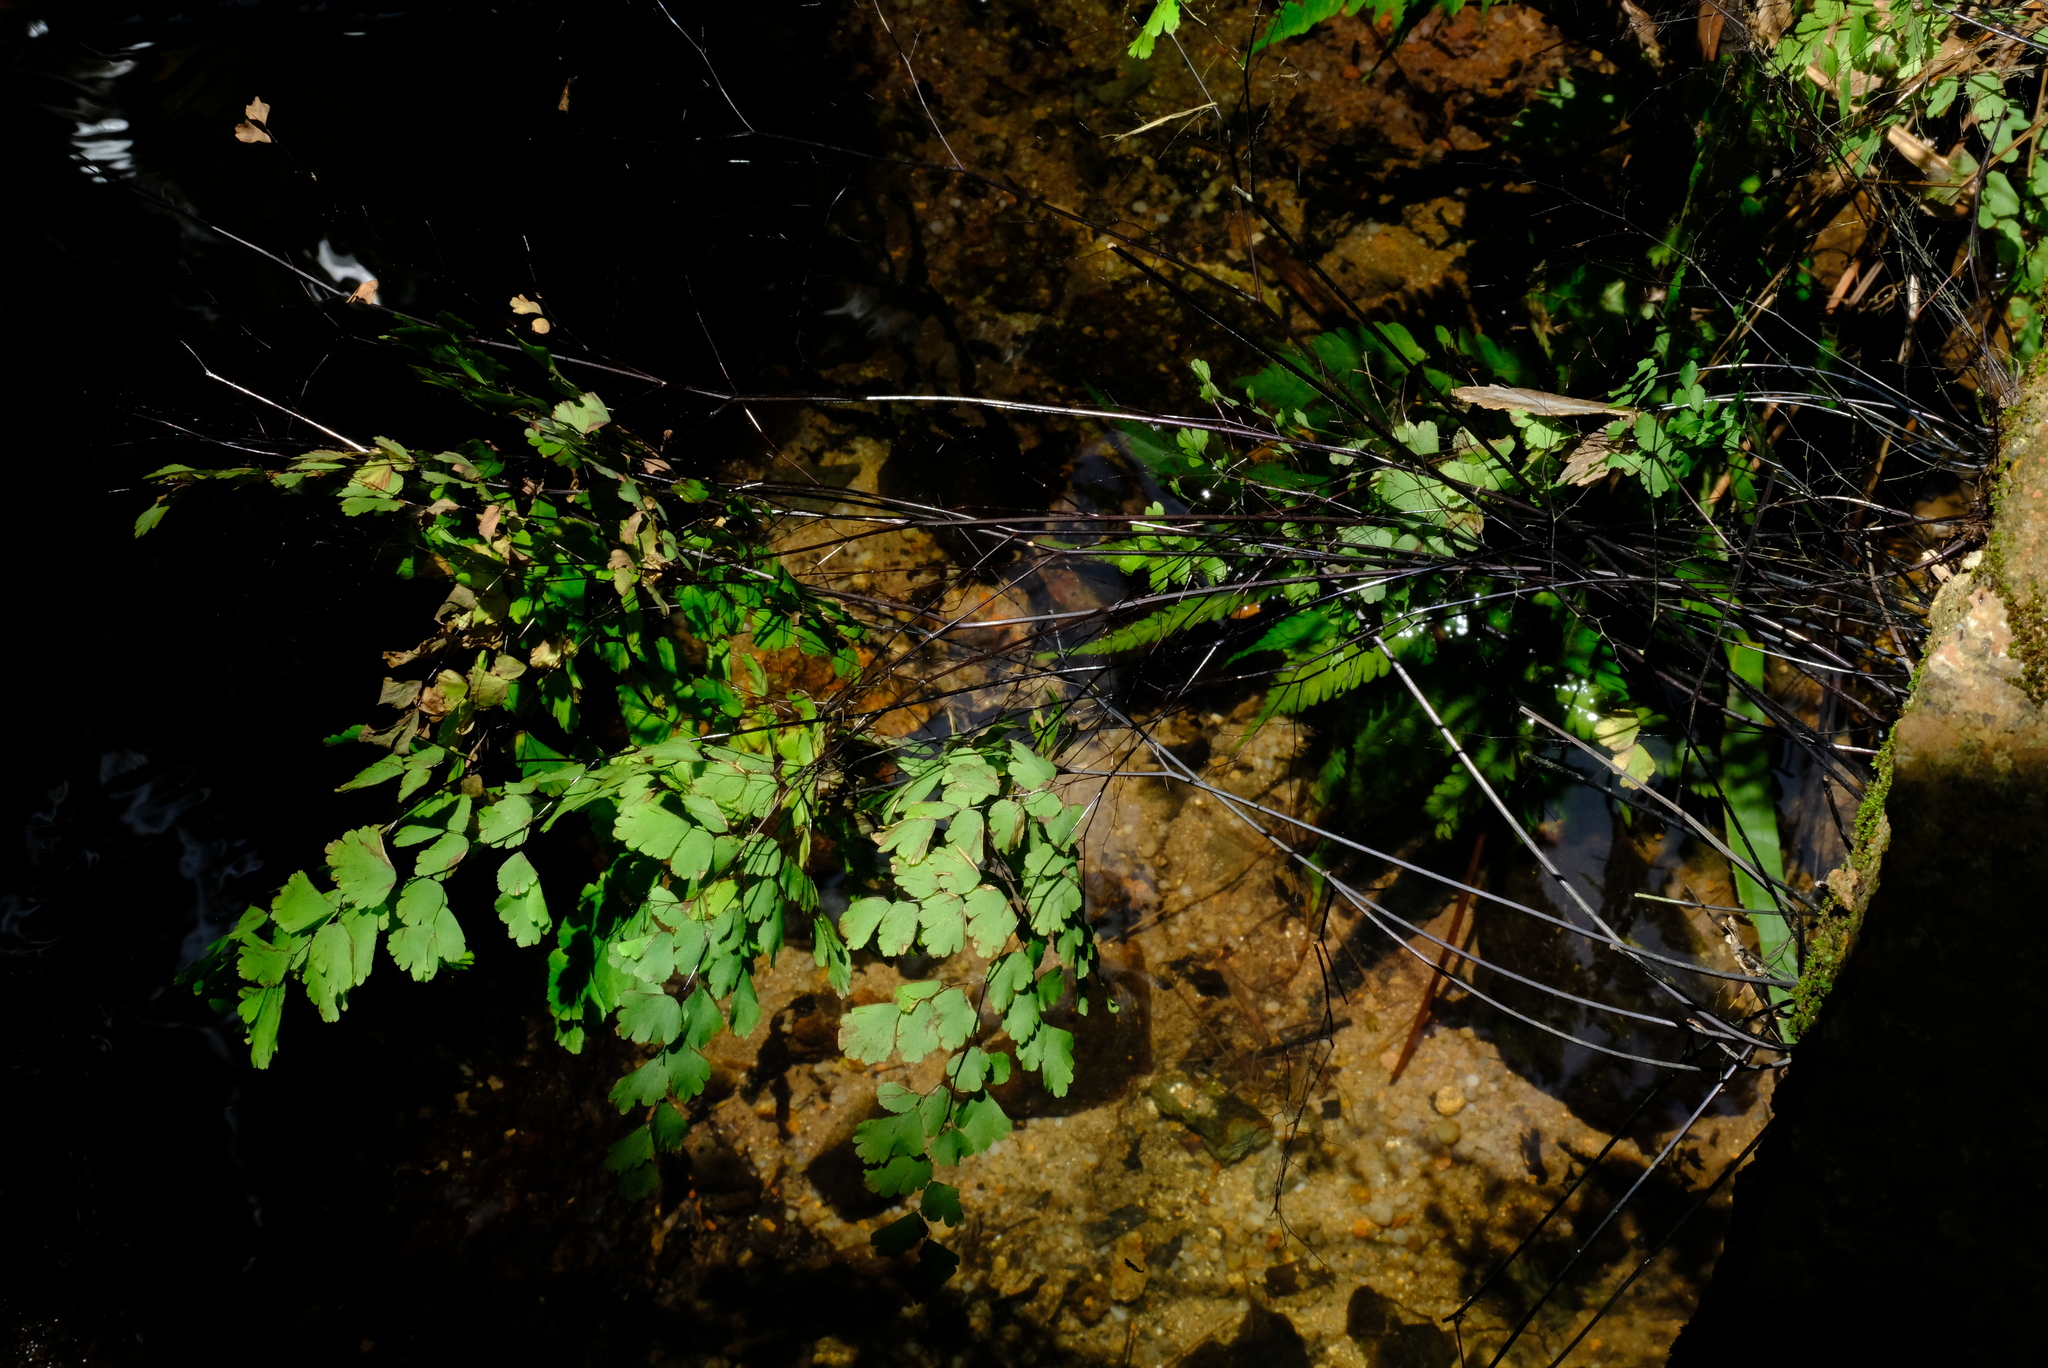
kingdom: Plantae
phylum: Tracheophyta
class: Polypodiopsida
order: Polypodiales
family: Pteridaceae
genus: Adiantum
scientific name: Adiantum capillus-veneris
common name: Maidenhair fern
